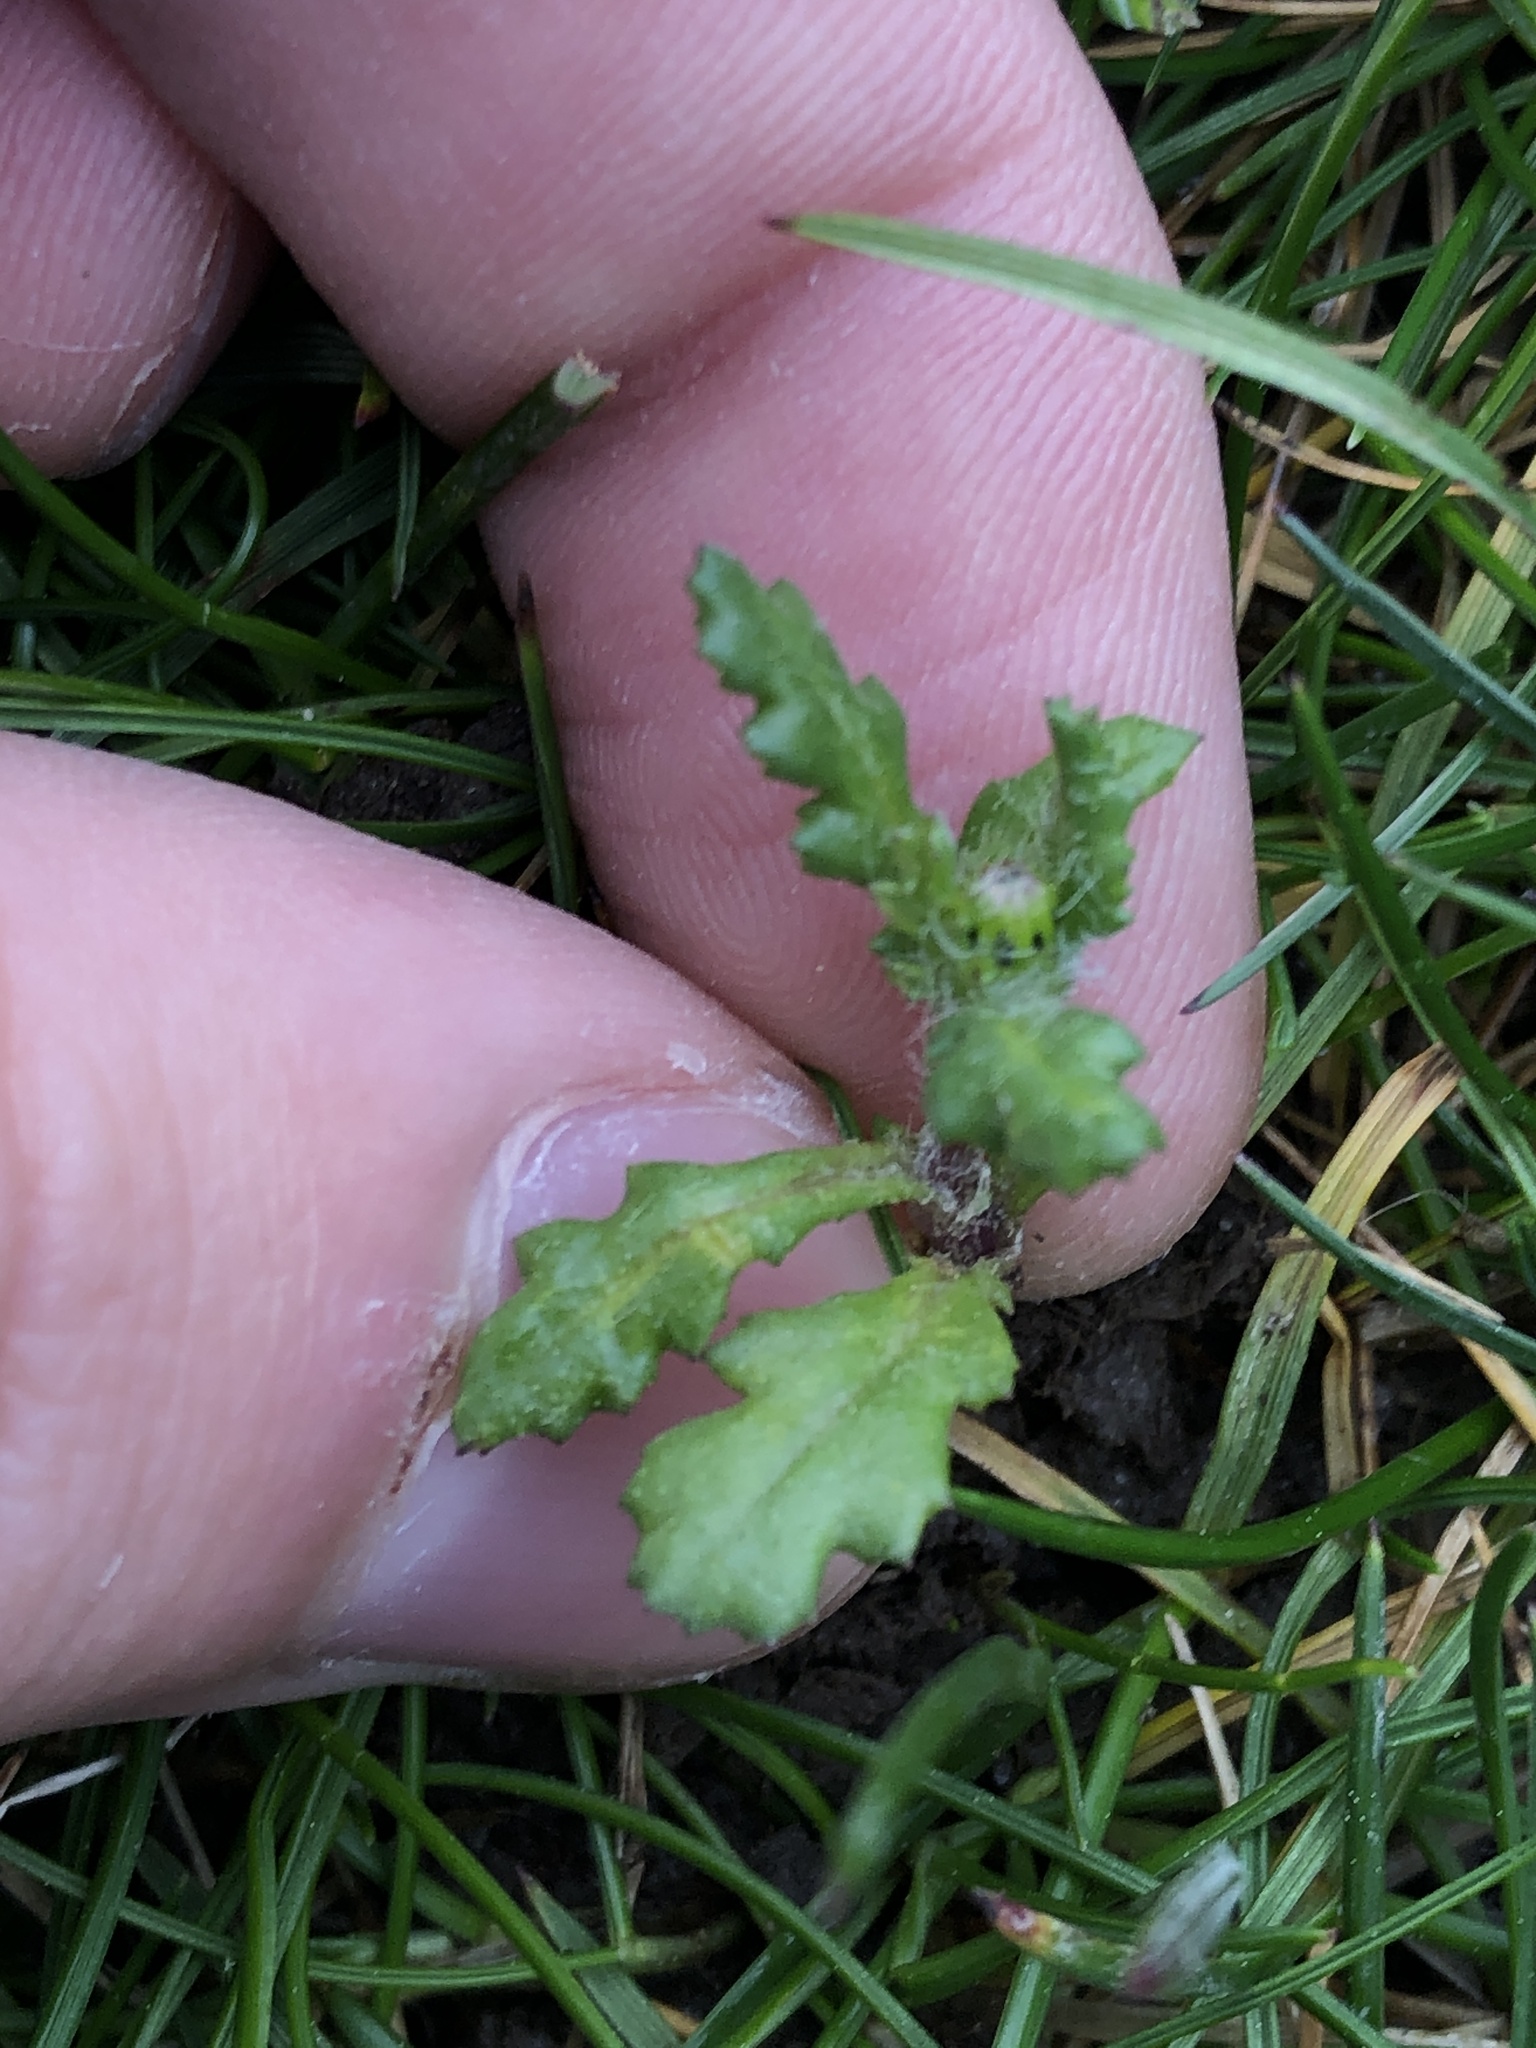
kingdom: Plantae
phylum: Tracheophyta
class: Magnoliopsida
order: Asterales
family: Asteraceae
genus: Senecio
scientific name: Senecio vulgaris
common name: Old-man-in-the-spring
